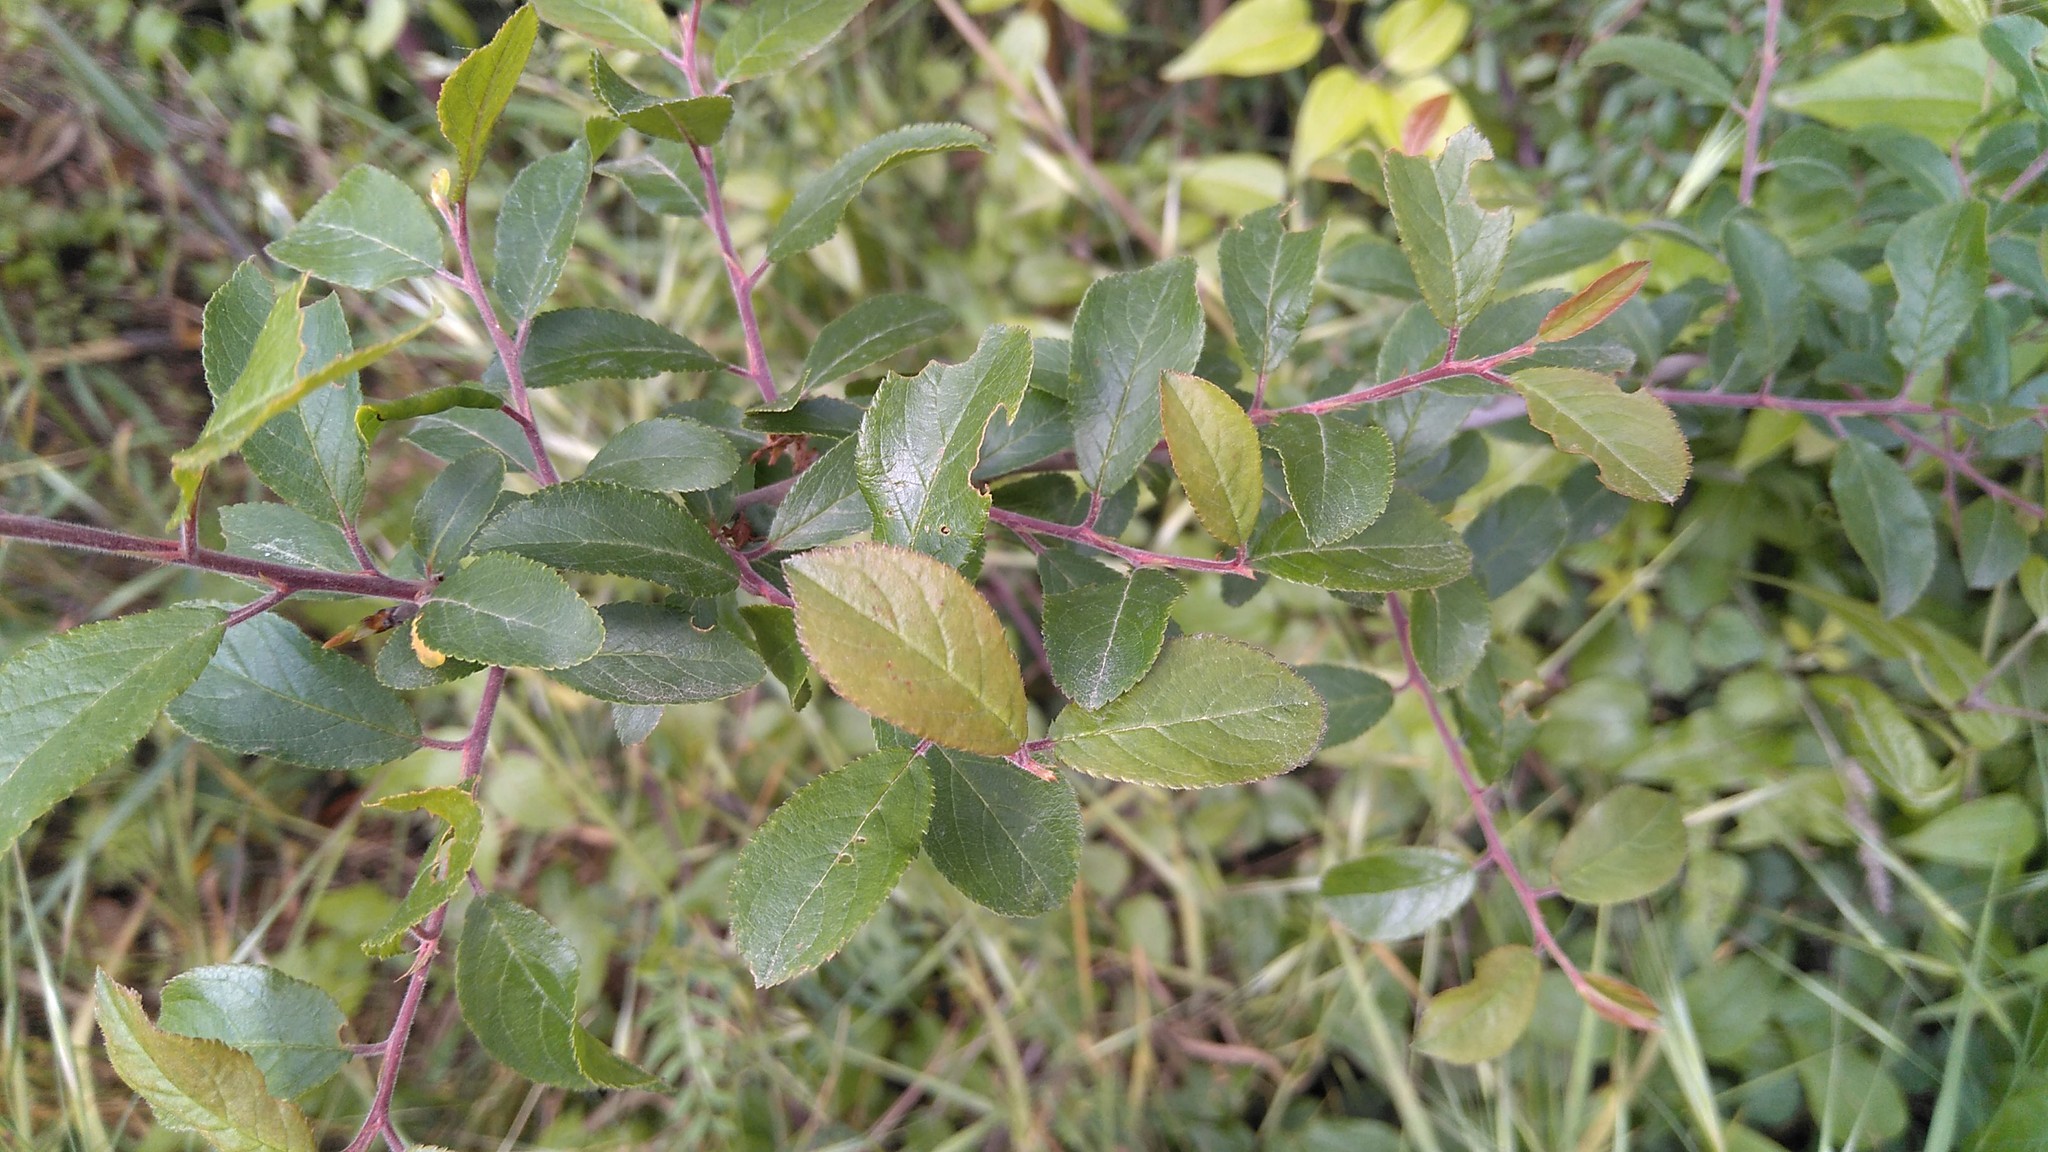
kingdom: Plantae
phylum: Tracheophyta
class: Magnoliopsida
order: Rosales
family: Rosaceae
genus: Prunus
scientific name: Prunus spinosa
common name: Blackthorn
